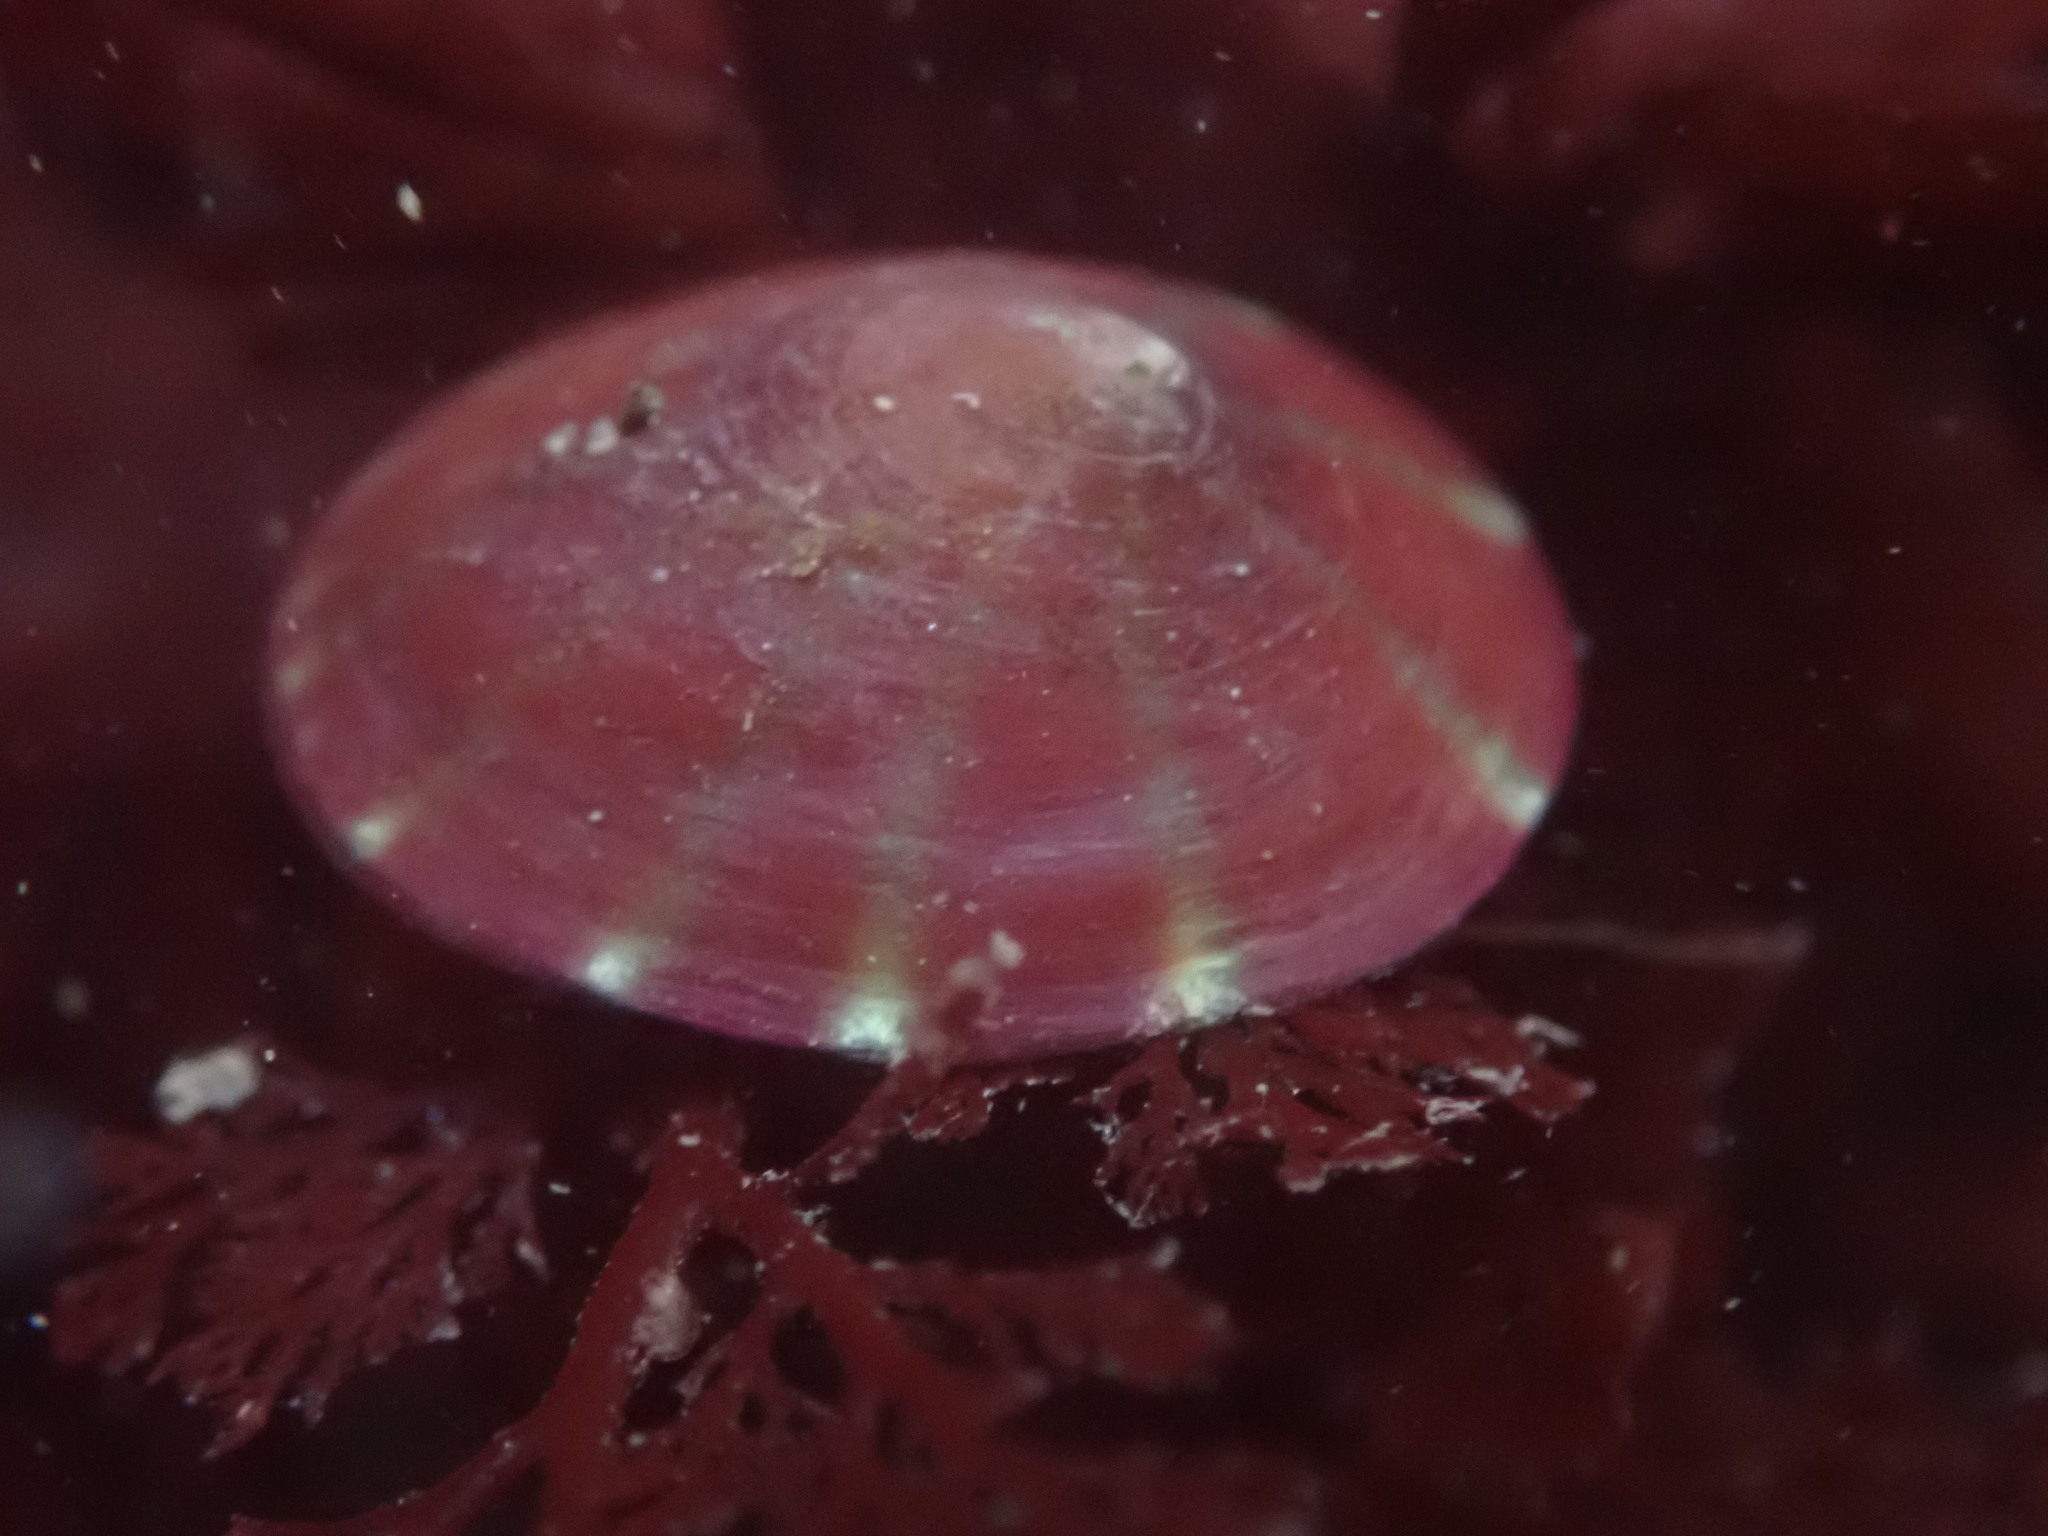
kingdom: Animalia
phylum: Mollusca
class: Gastropoda
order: Siphonariida
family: Siphonariidae
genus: Williamia
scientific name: Williamia peltoides
